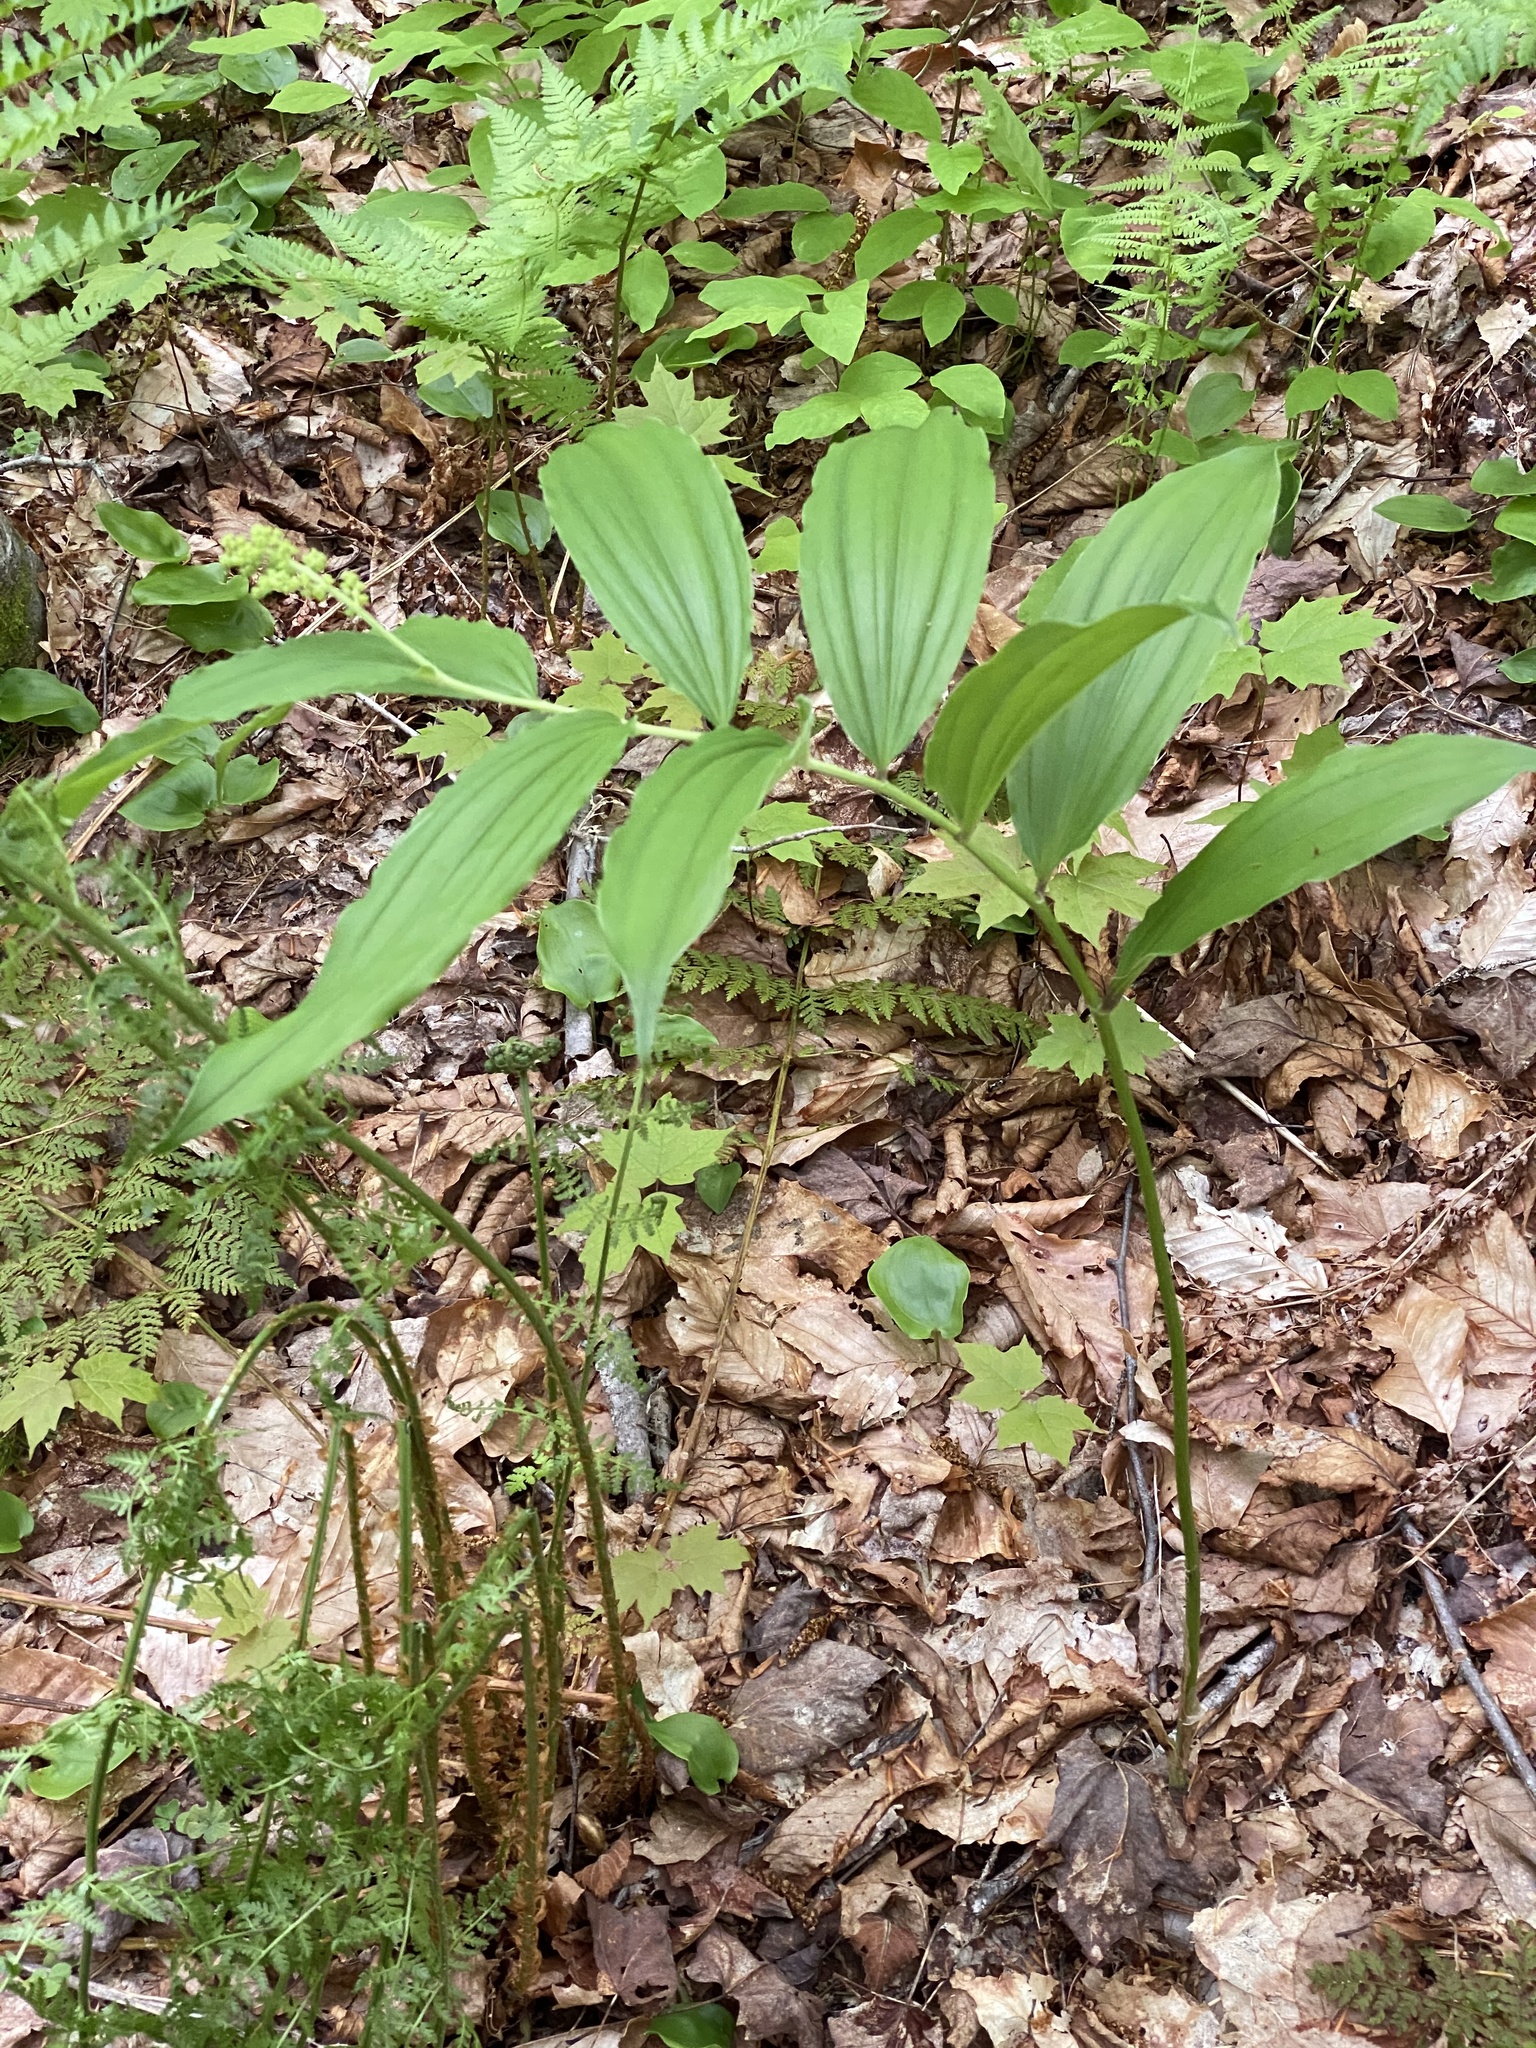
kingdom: Plantae
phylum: Tracheophyta
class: Liliopsida
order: Asparagales
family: Asparagaceae
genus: Maianthemum
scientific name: Maianthemum racemosum
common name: False spikenard
